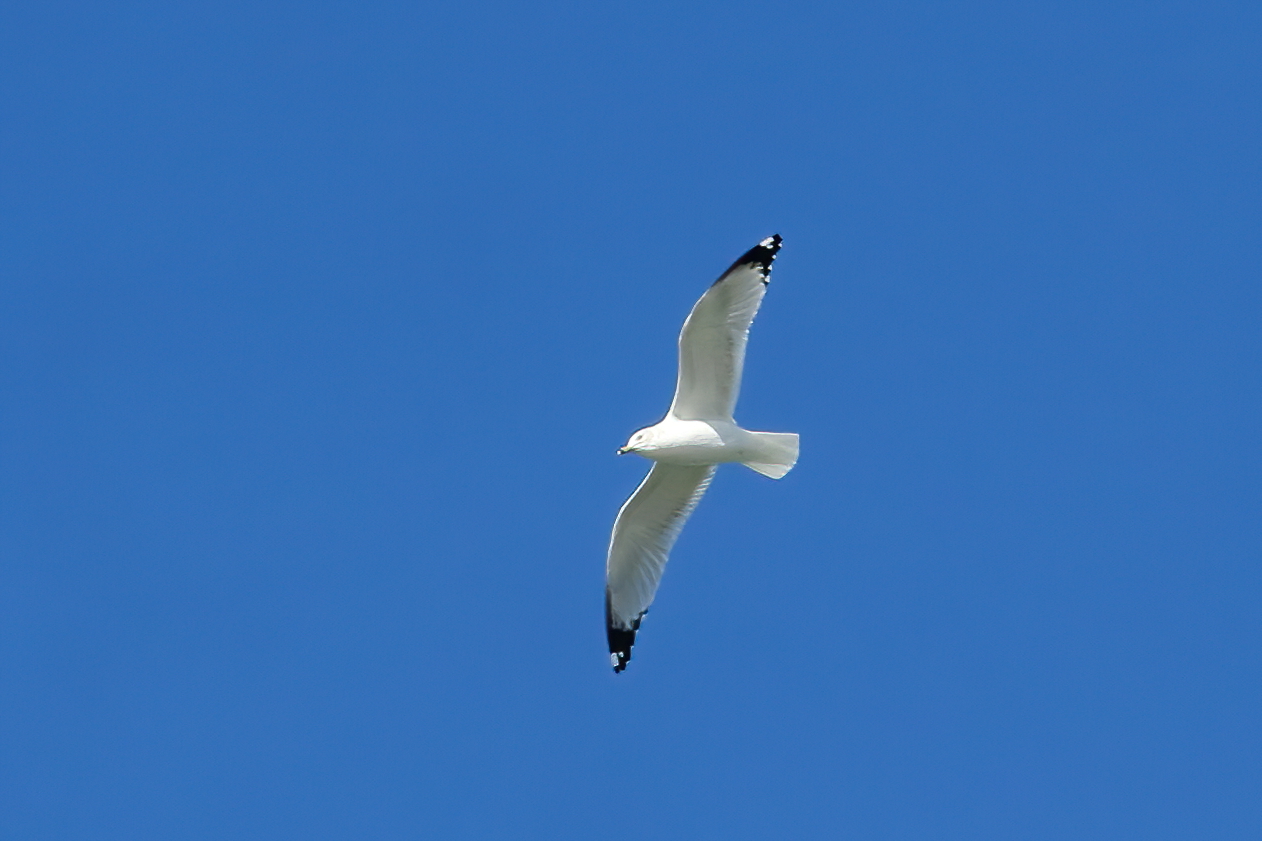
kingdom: Animalia
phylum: Chordata
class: Aves
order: Charadriiformes
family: Laridae
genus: Larus
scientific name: Larus delawarensis
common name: Ring-billed gull
